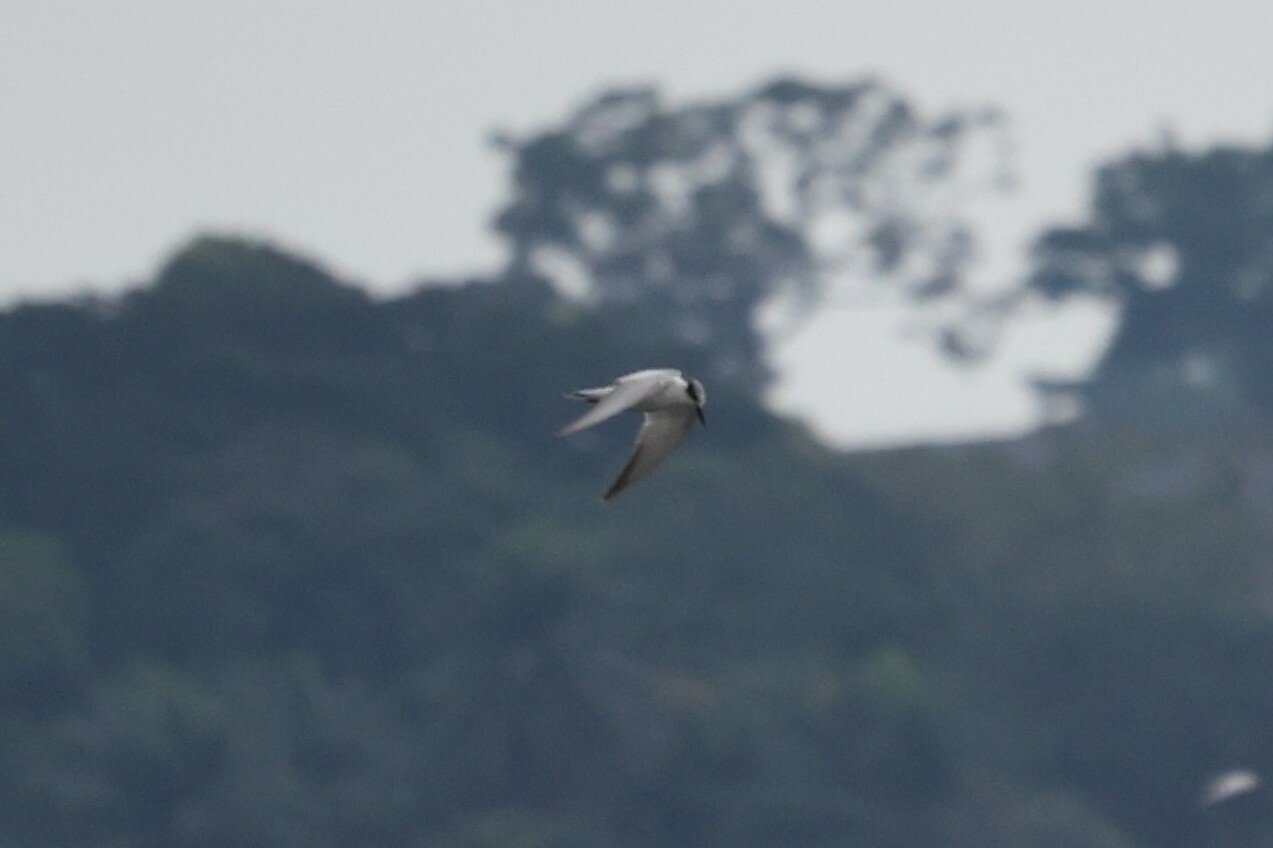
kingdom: Animalia
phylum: Chordata
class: Aves
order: Charadriiformes
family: Laridae
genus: Chlidonias
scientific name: Chlidonias hybrida
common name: Whiskered tern
